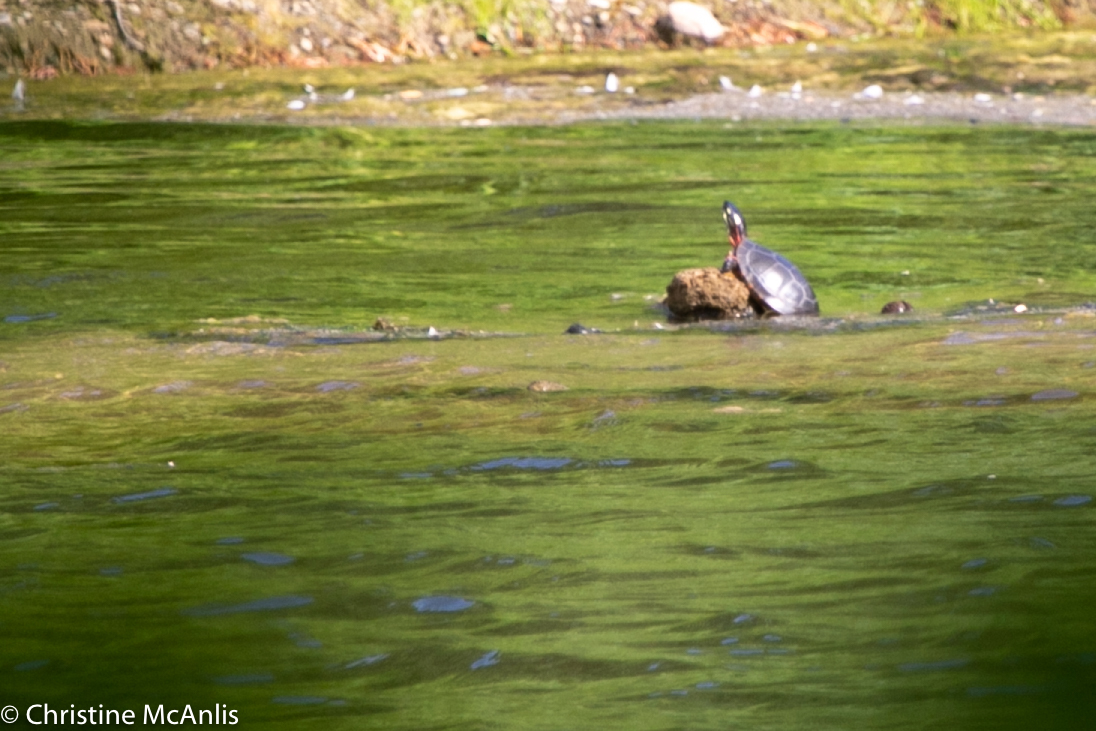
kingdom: Animalia
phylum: Chordata
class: Testudines
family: Emydidae
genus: Chrysemys
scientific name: Chrysemys picta
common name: Painted turtle
